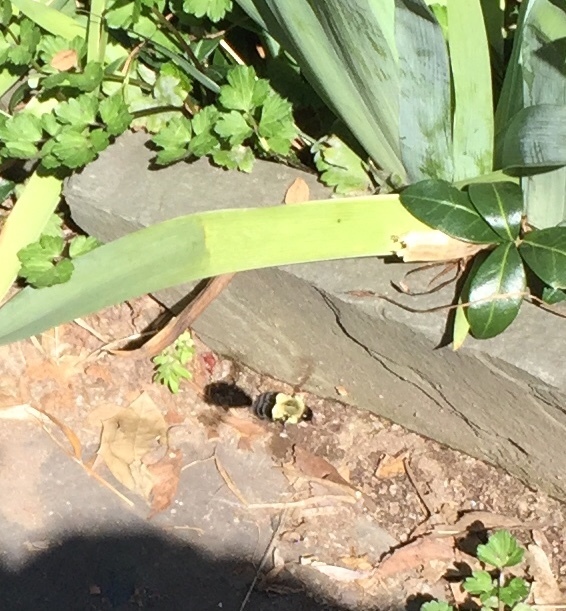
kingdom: Animalia
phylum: Arthropoda
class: Insecta
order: Hymenoptera
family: Apidae
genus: Bombus
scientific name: Bombus impatiens
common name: Common eastern bumble bee
